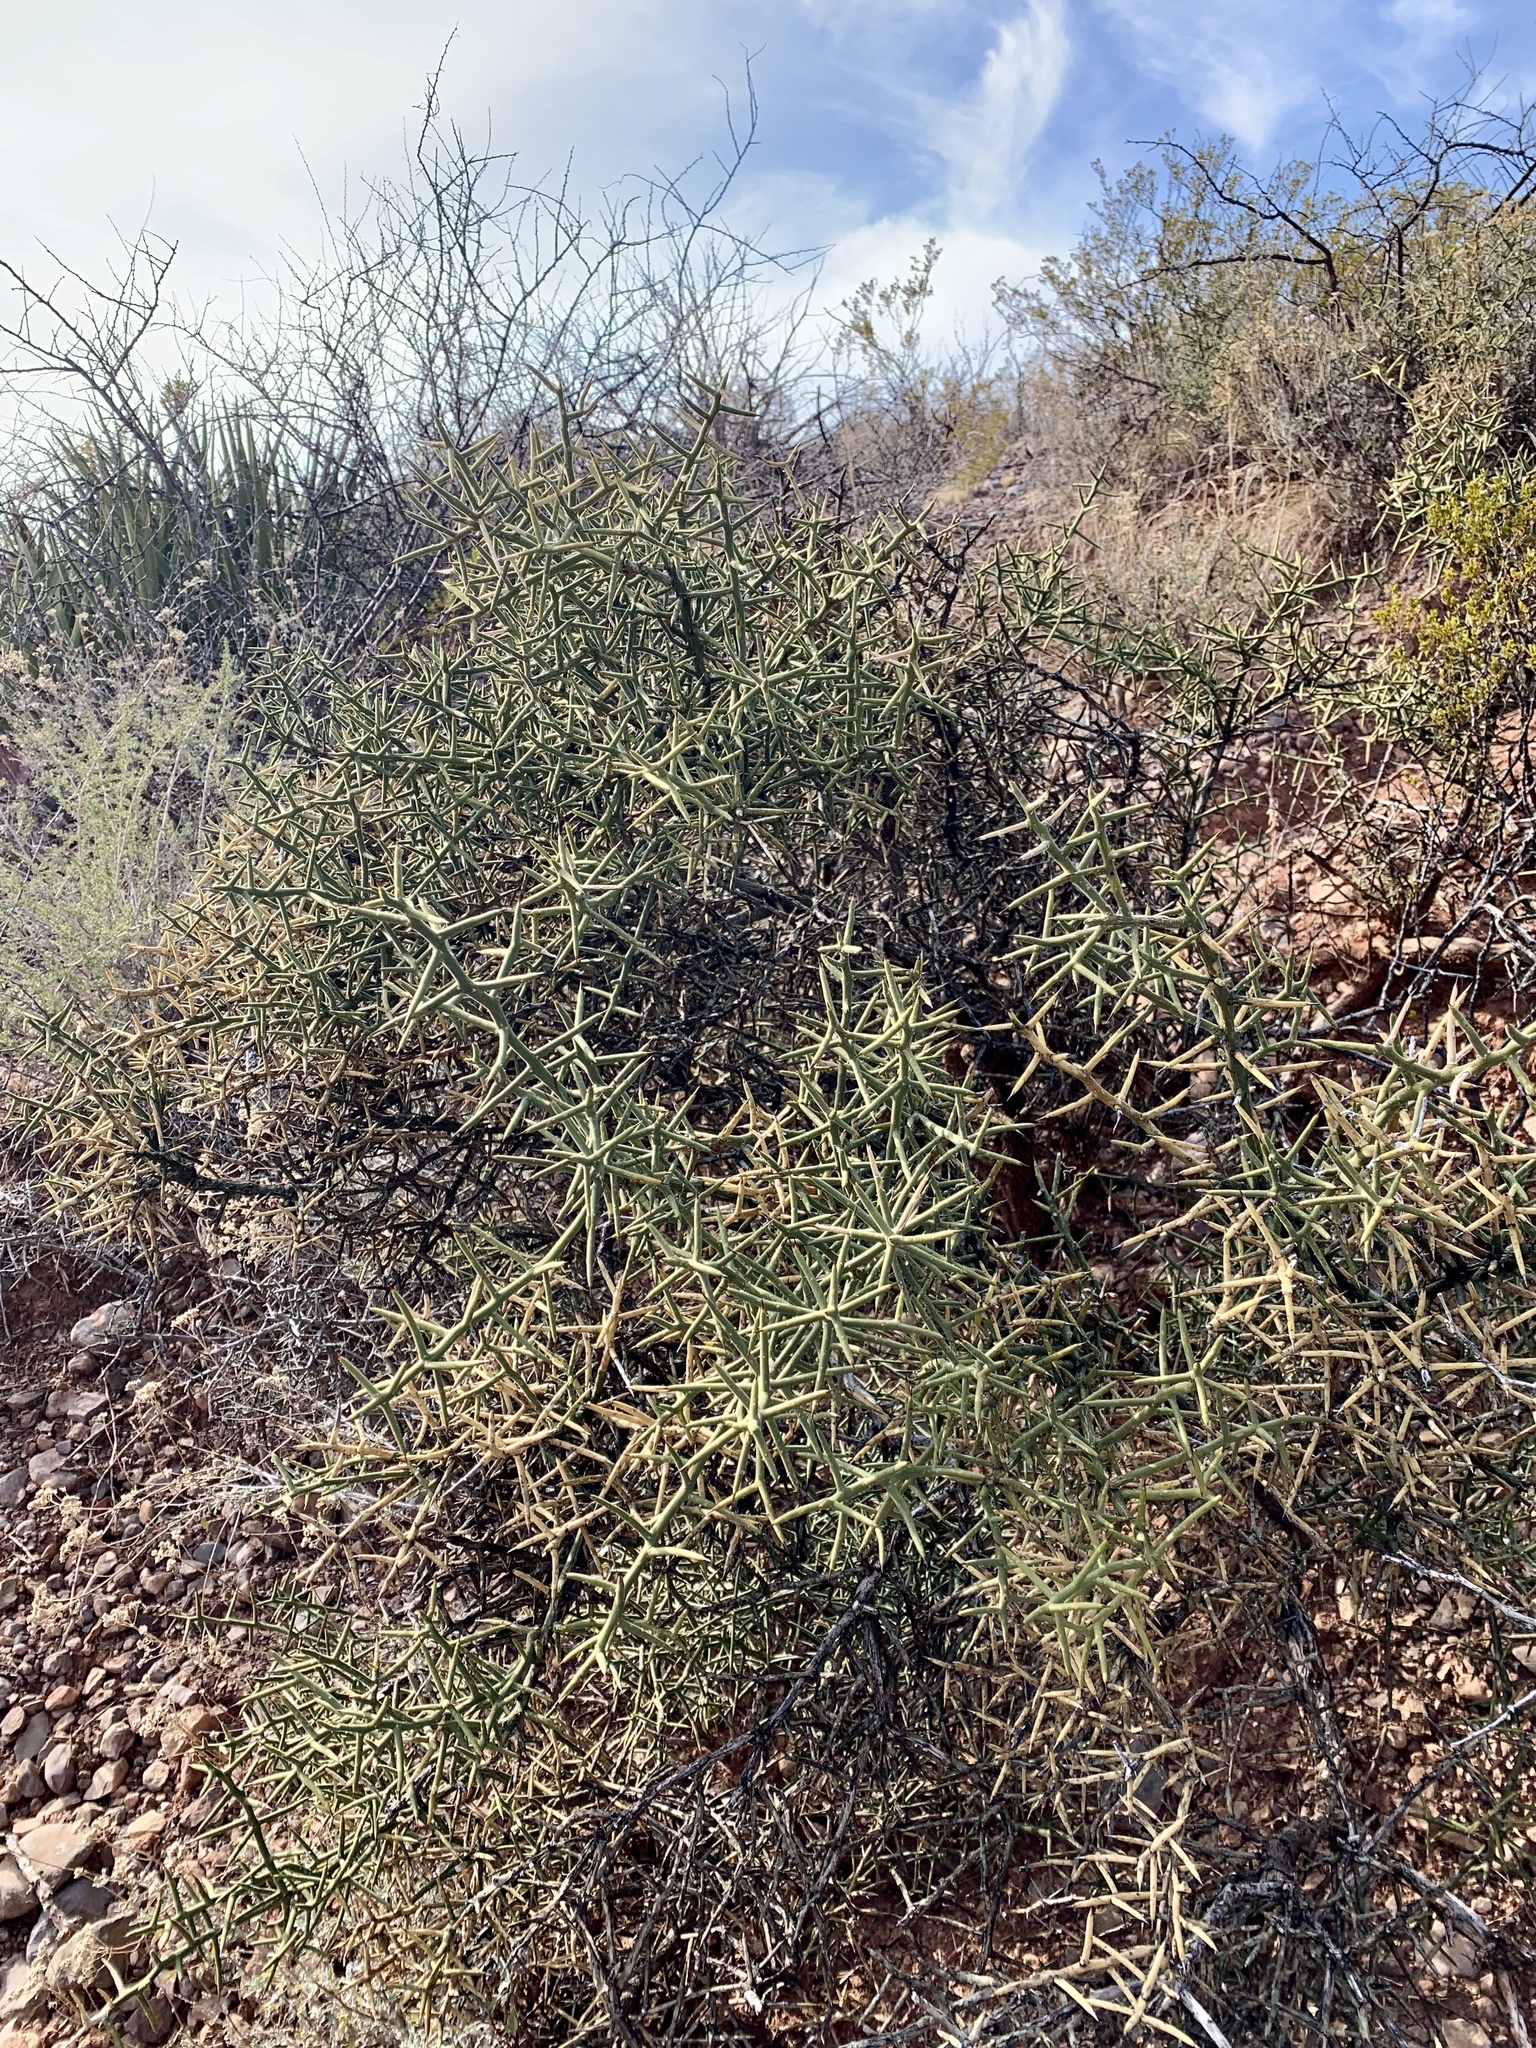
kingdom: Plantae
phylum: Tracheophyta
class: Magnoliopsida
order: Brassicales
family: Koeberliniaceae
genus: Koeberlinia
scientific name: Koeberlinia spinosa
